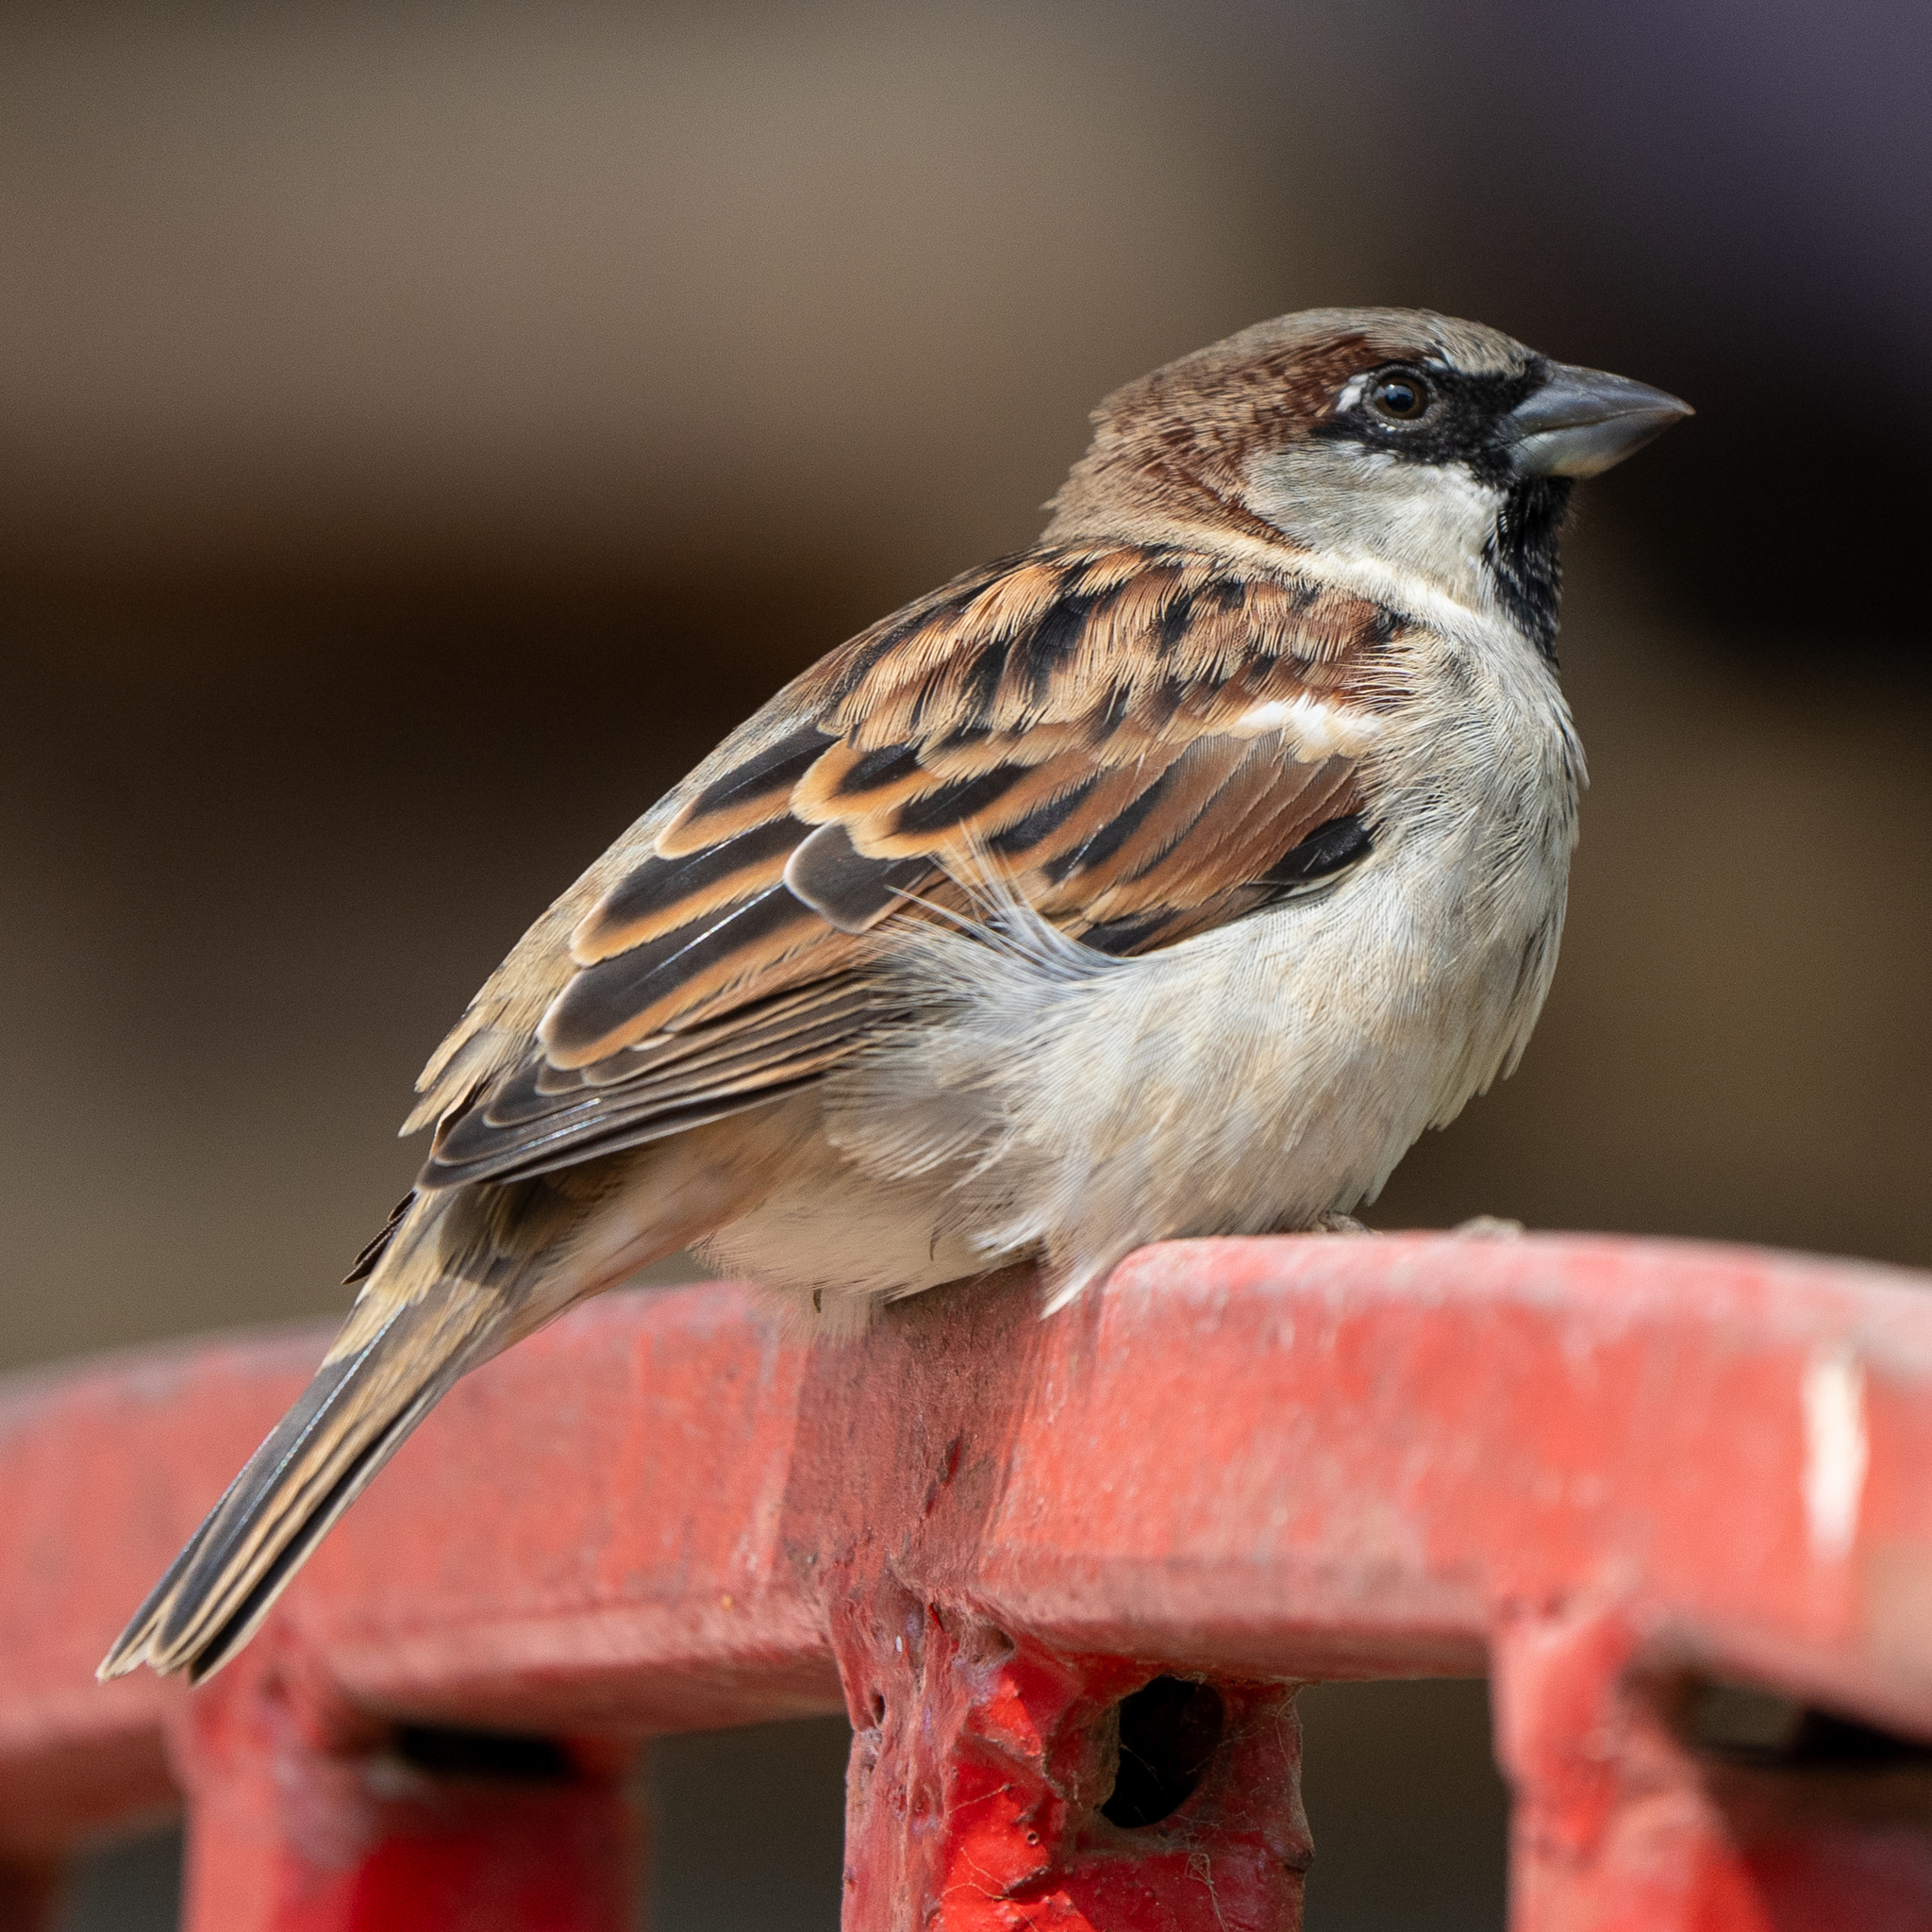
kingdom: Animalia
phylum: Chordata
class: Aves
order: Passeriformes
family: Passeridae
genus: Passer
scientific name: Passer domesticus
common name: House sparrow
